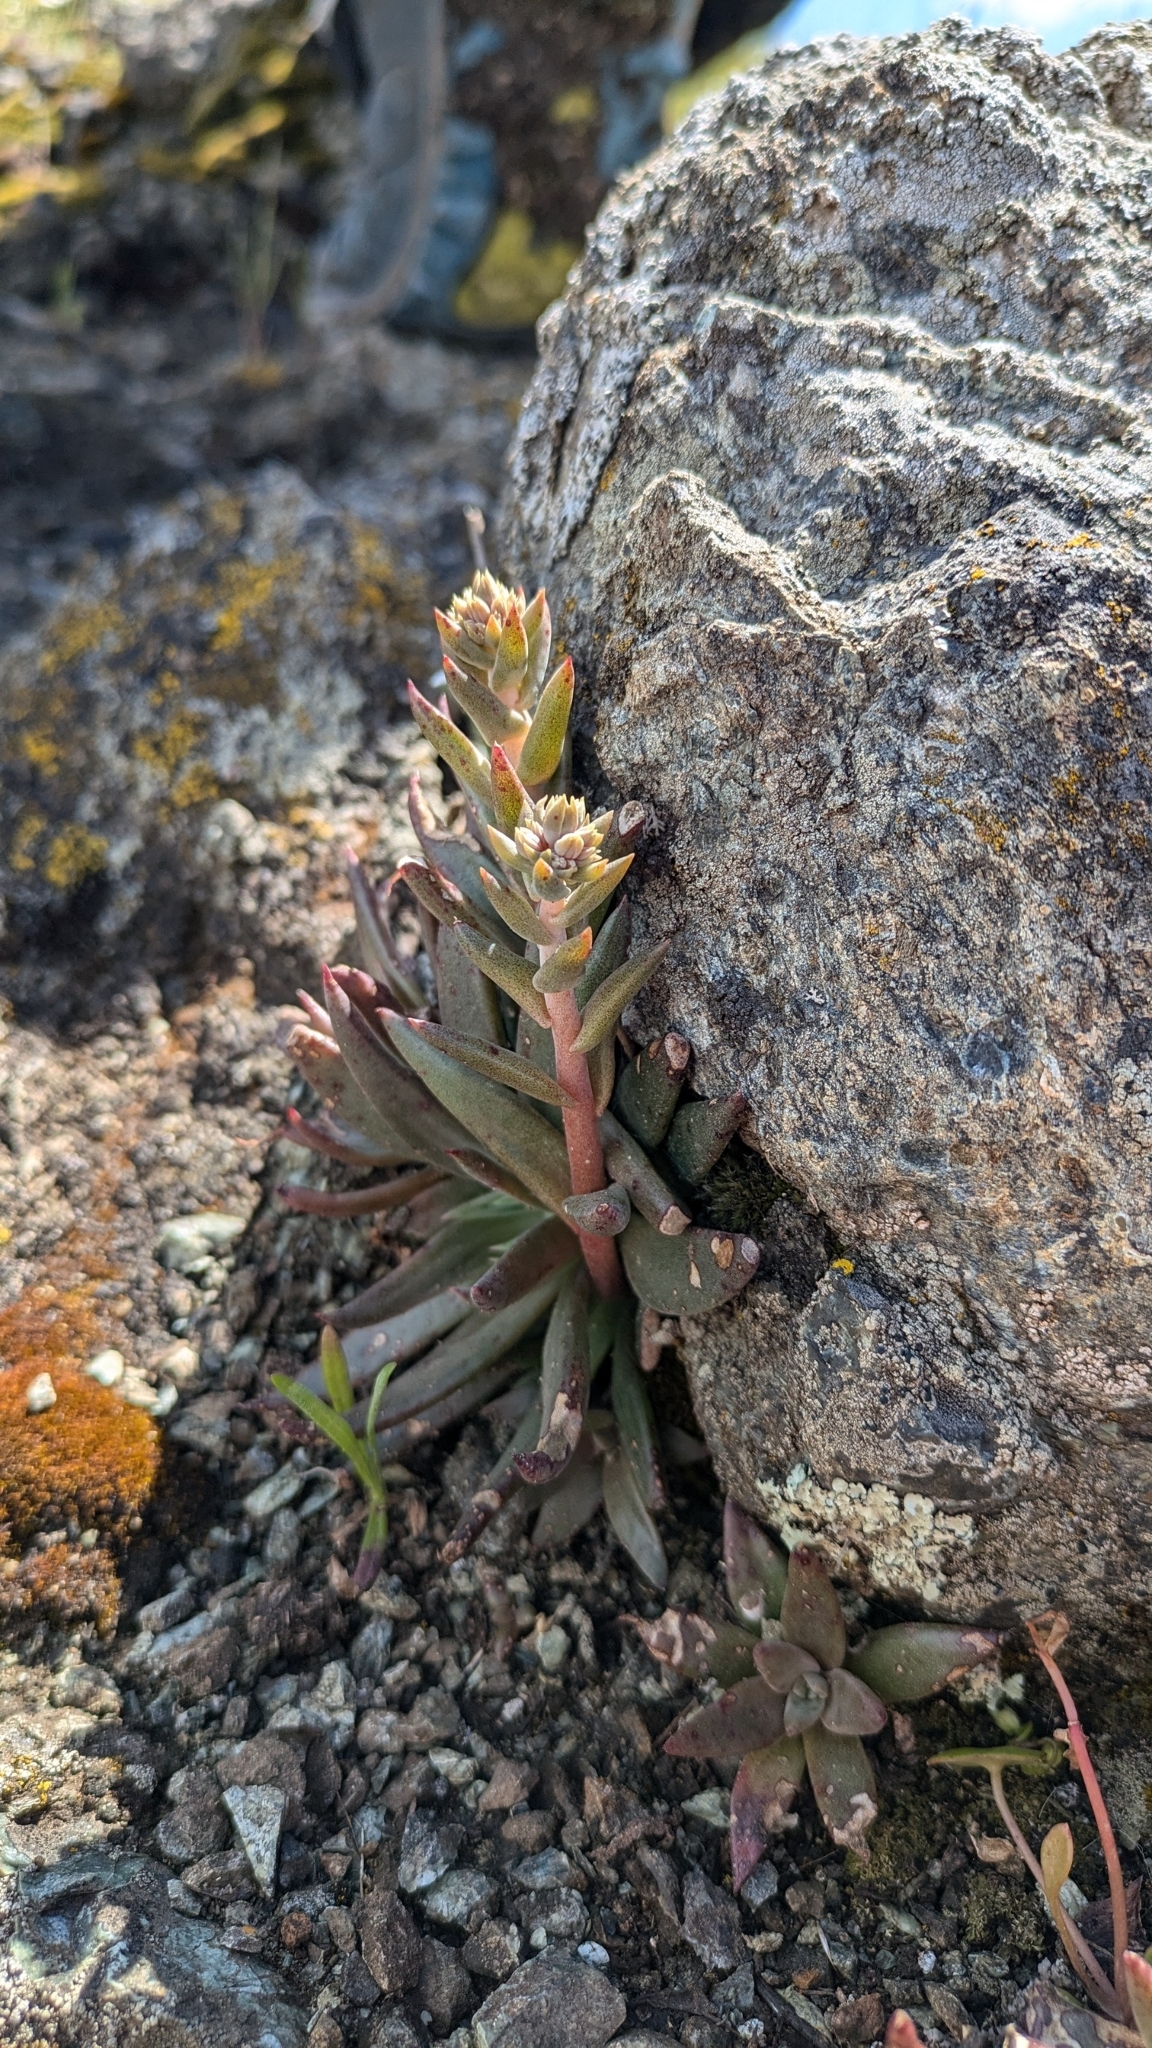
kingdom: Plantae
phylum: Tracheophyta
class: Magnoliopsida
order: Saxifragales
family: Crassulaceae
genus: Dudleya
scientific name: Dudleya abramsii
